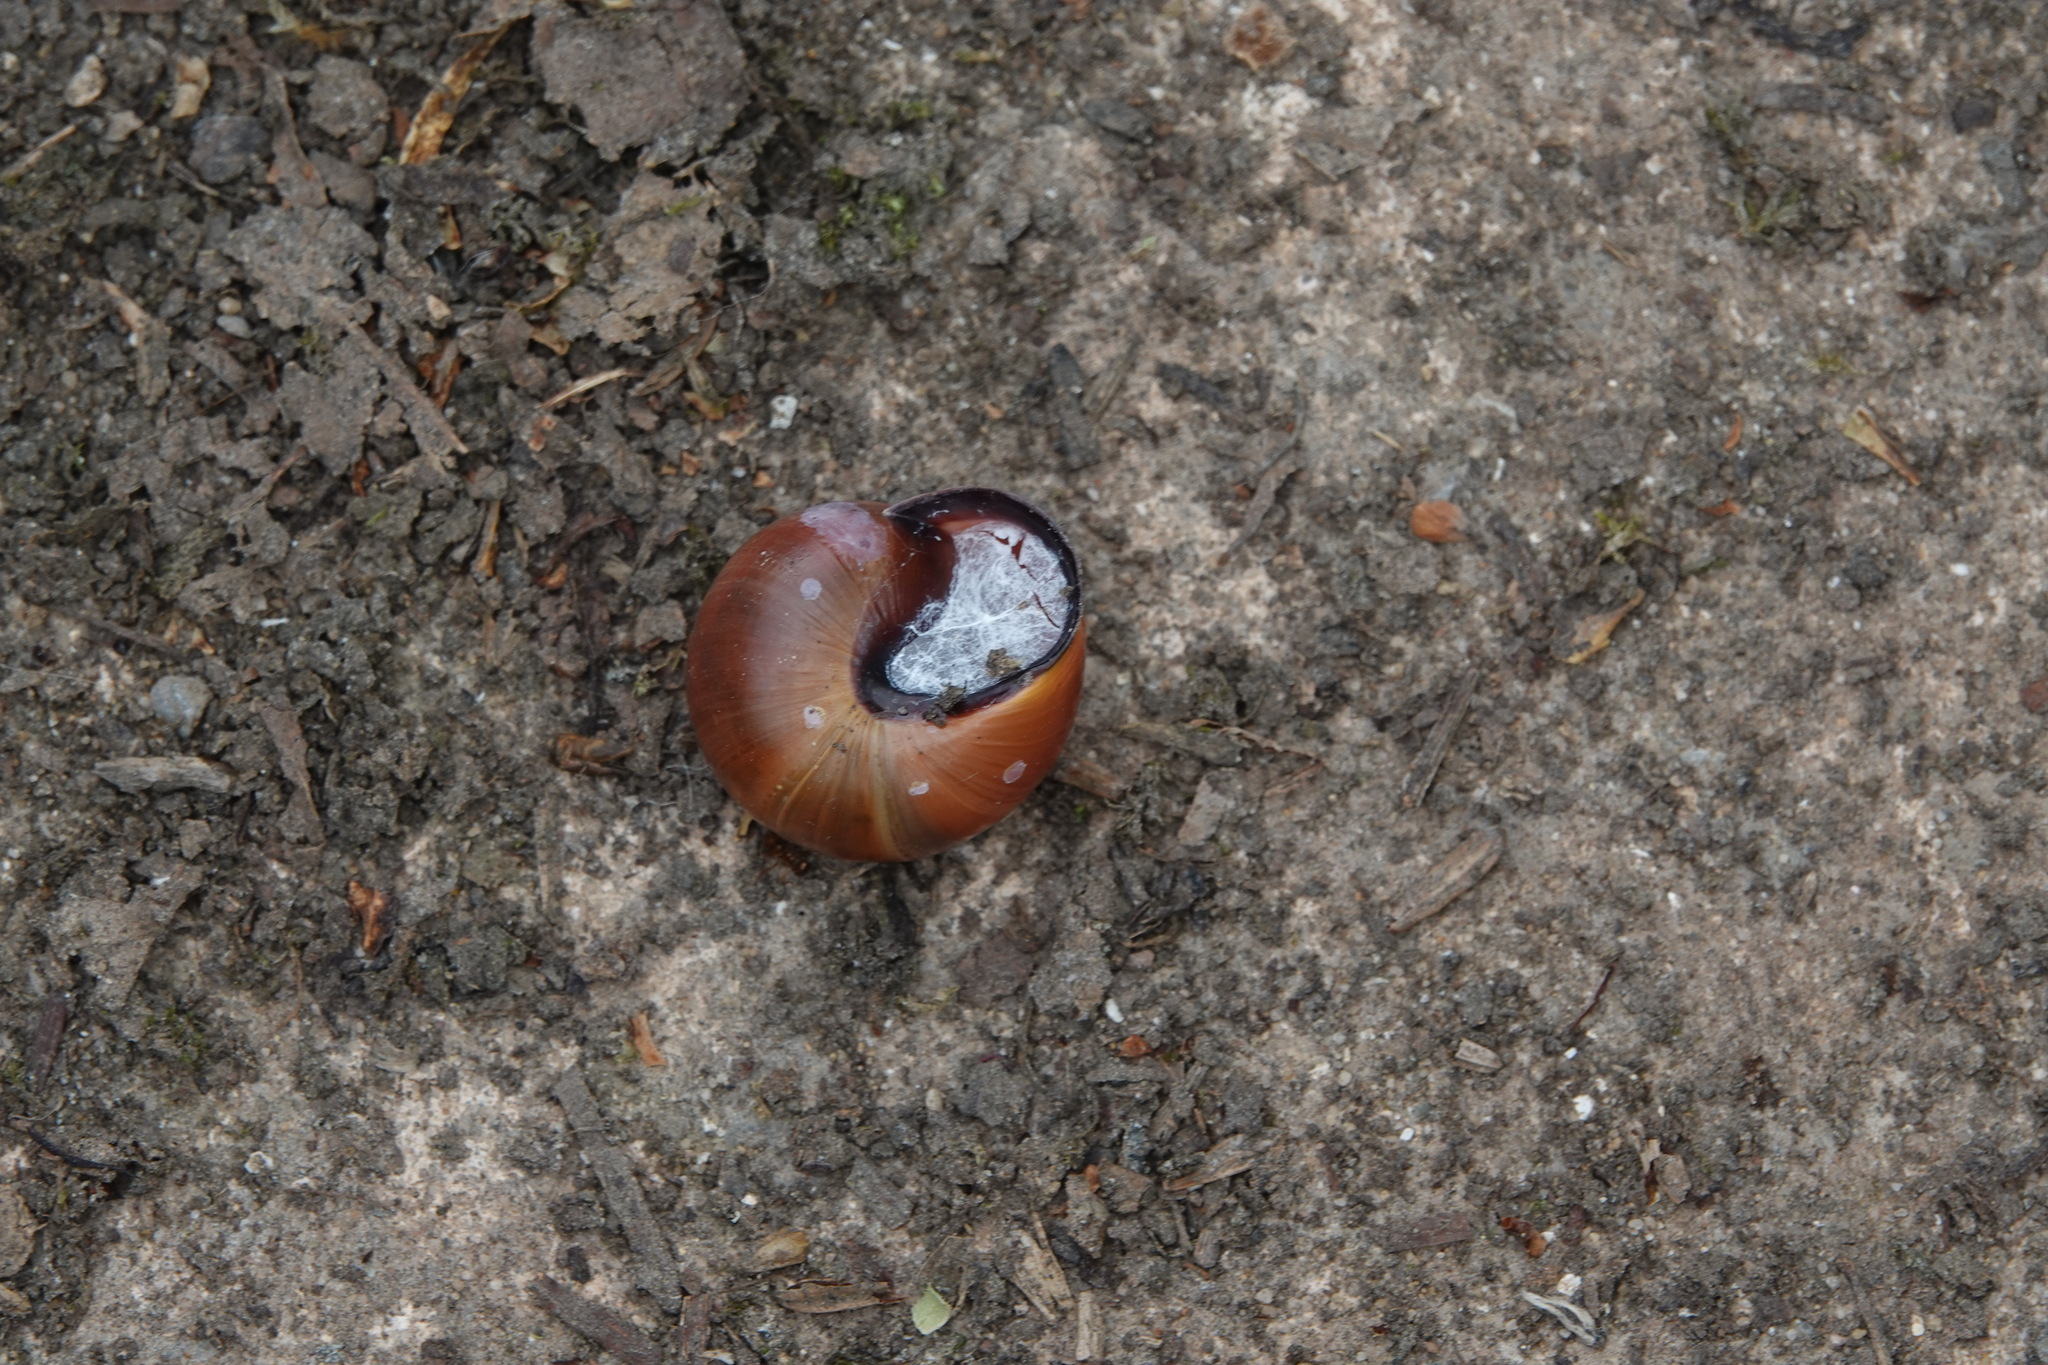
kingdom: Animalia
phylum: Mollusca
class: Gastropoda
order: Stylommatophora
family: Helicidae
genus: Cepaea
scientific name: Cepaea nemoralis
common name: Grovesnail
